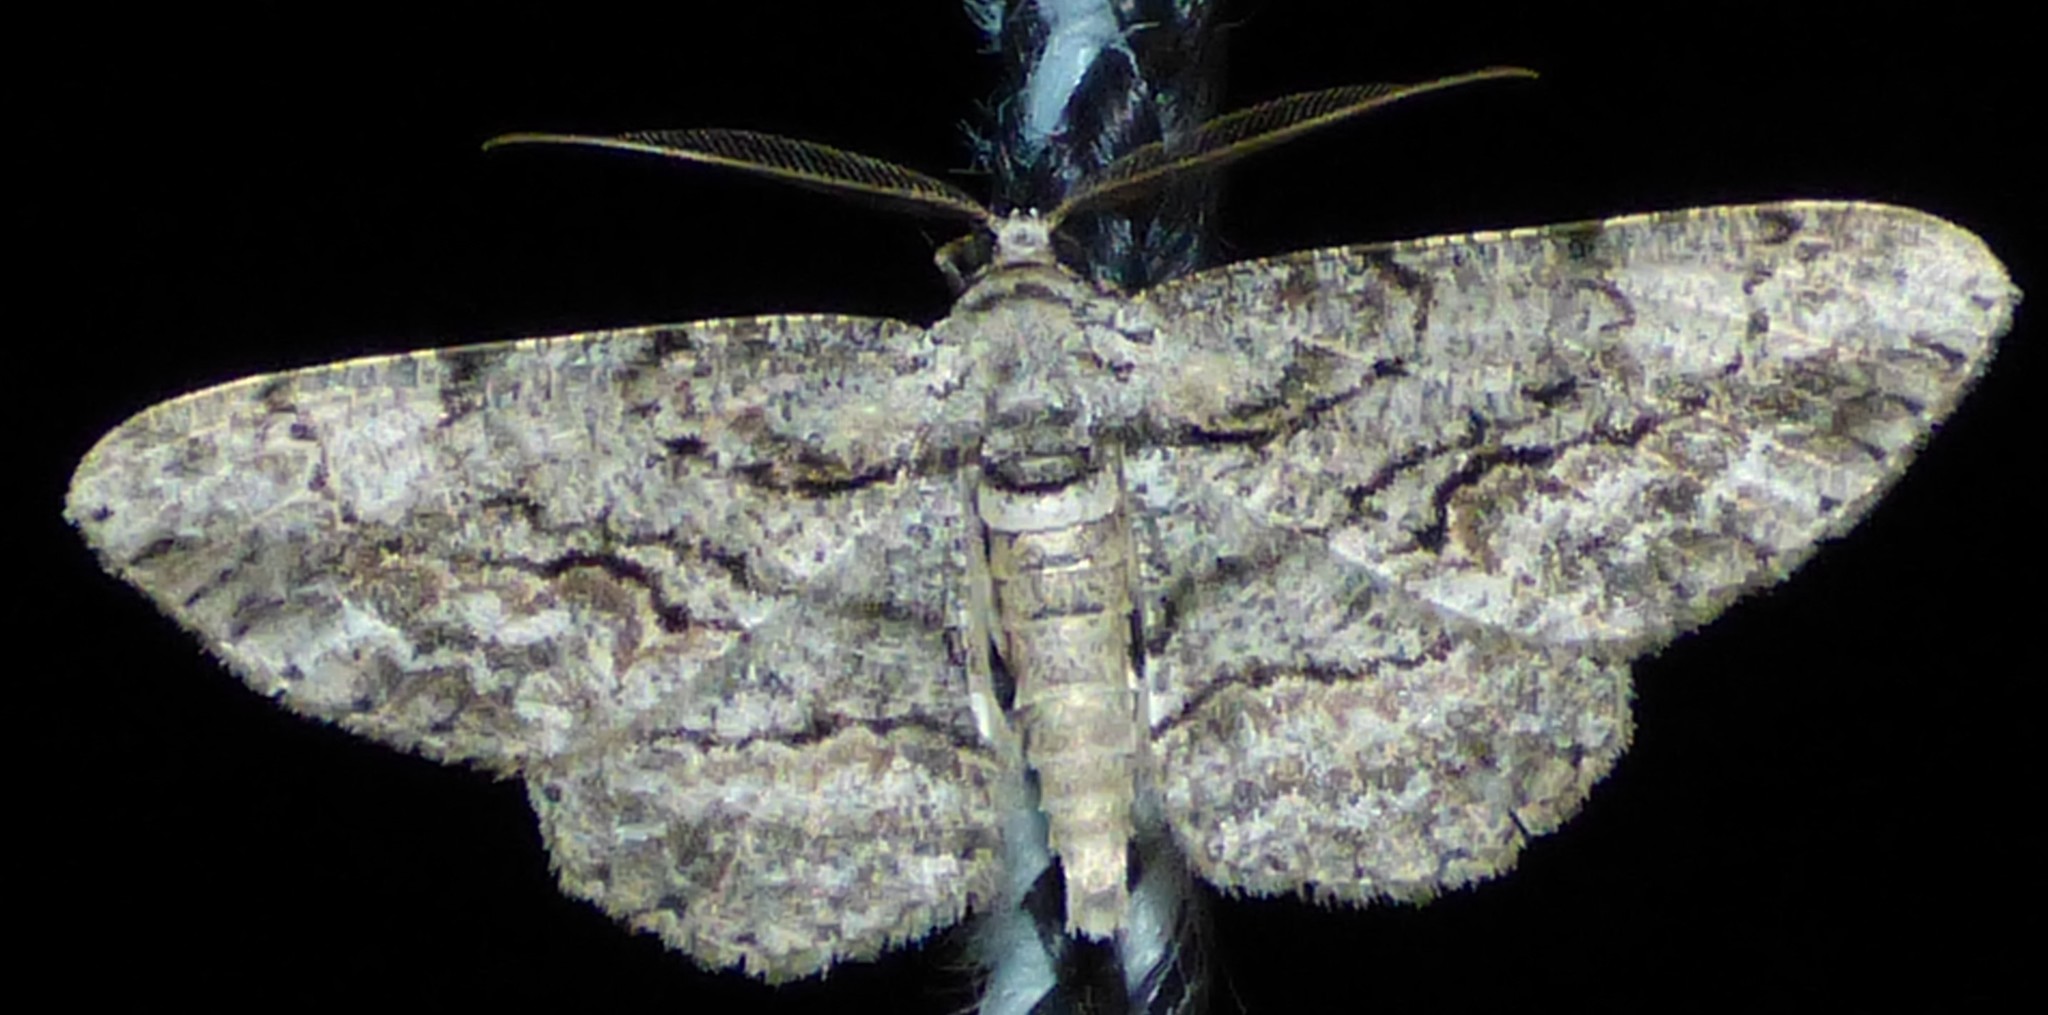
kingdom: Animalia
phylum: Arthropoda
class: Insecta
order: Lepidoptera
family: Geometridae
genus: Anavitrinella
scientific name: Anavitrinella pampinaria
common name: Common gray
